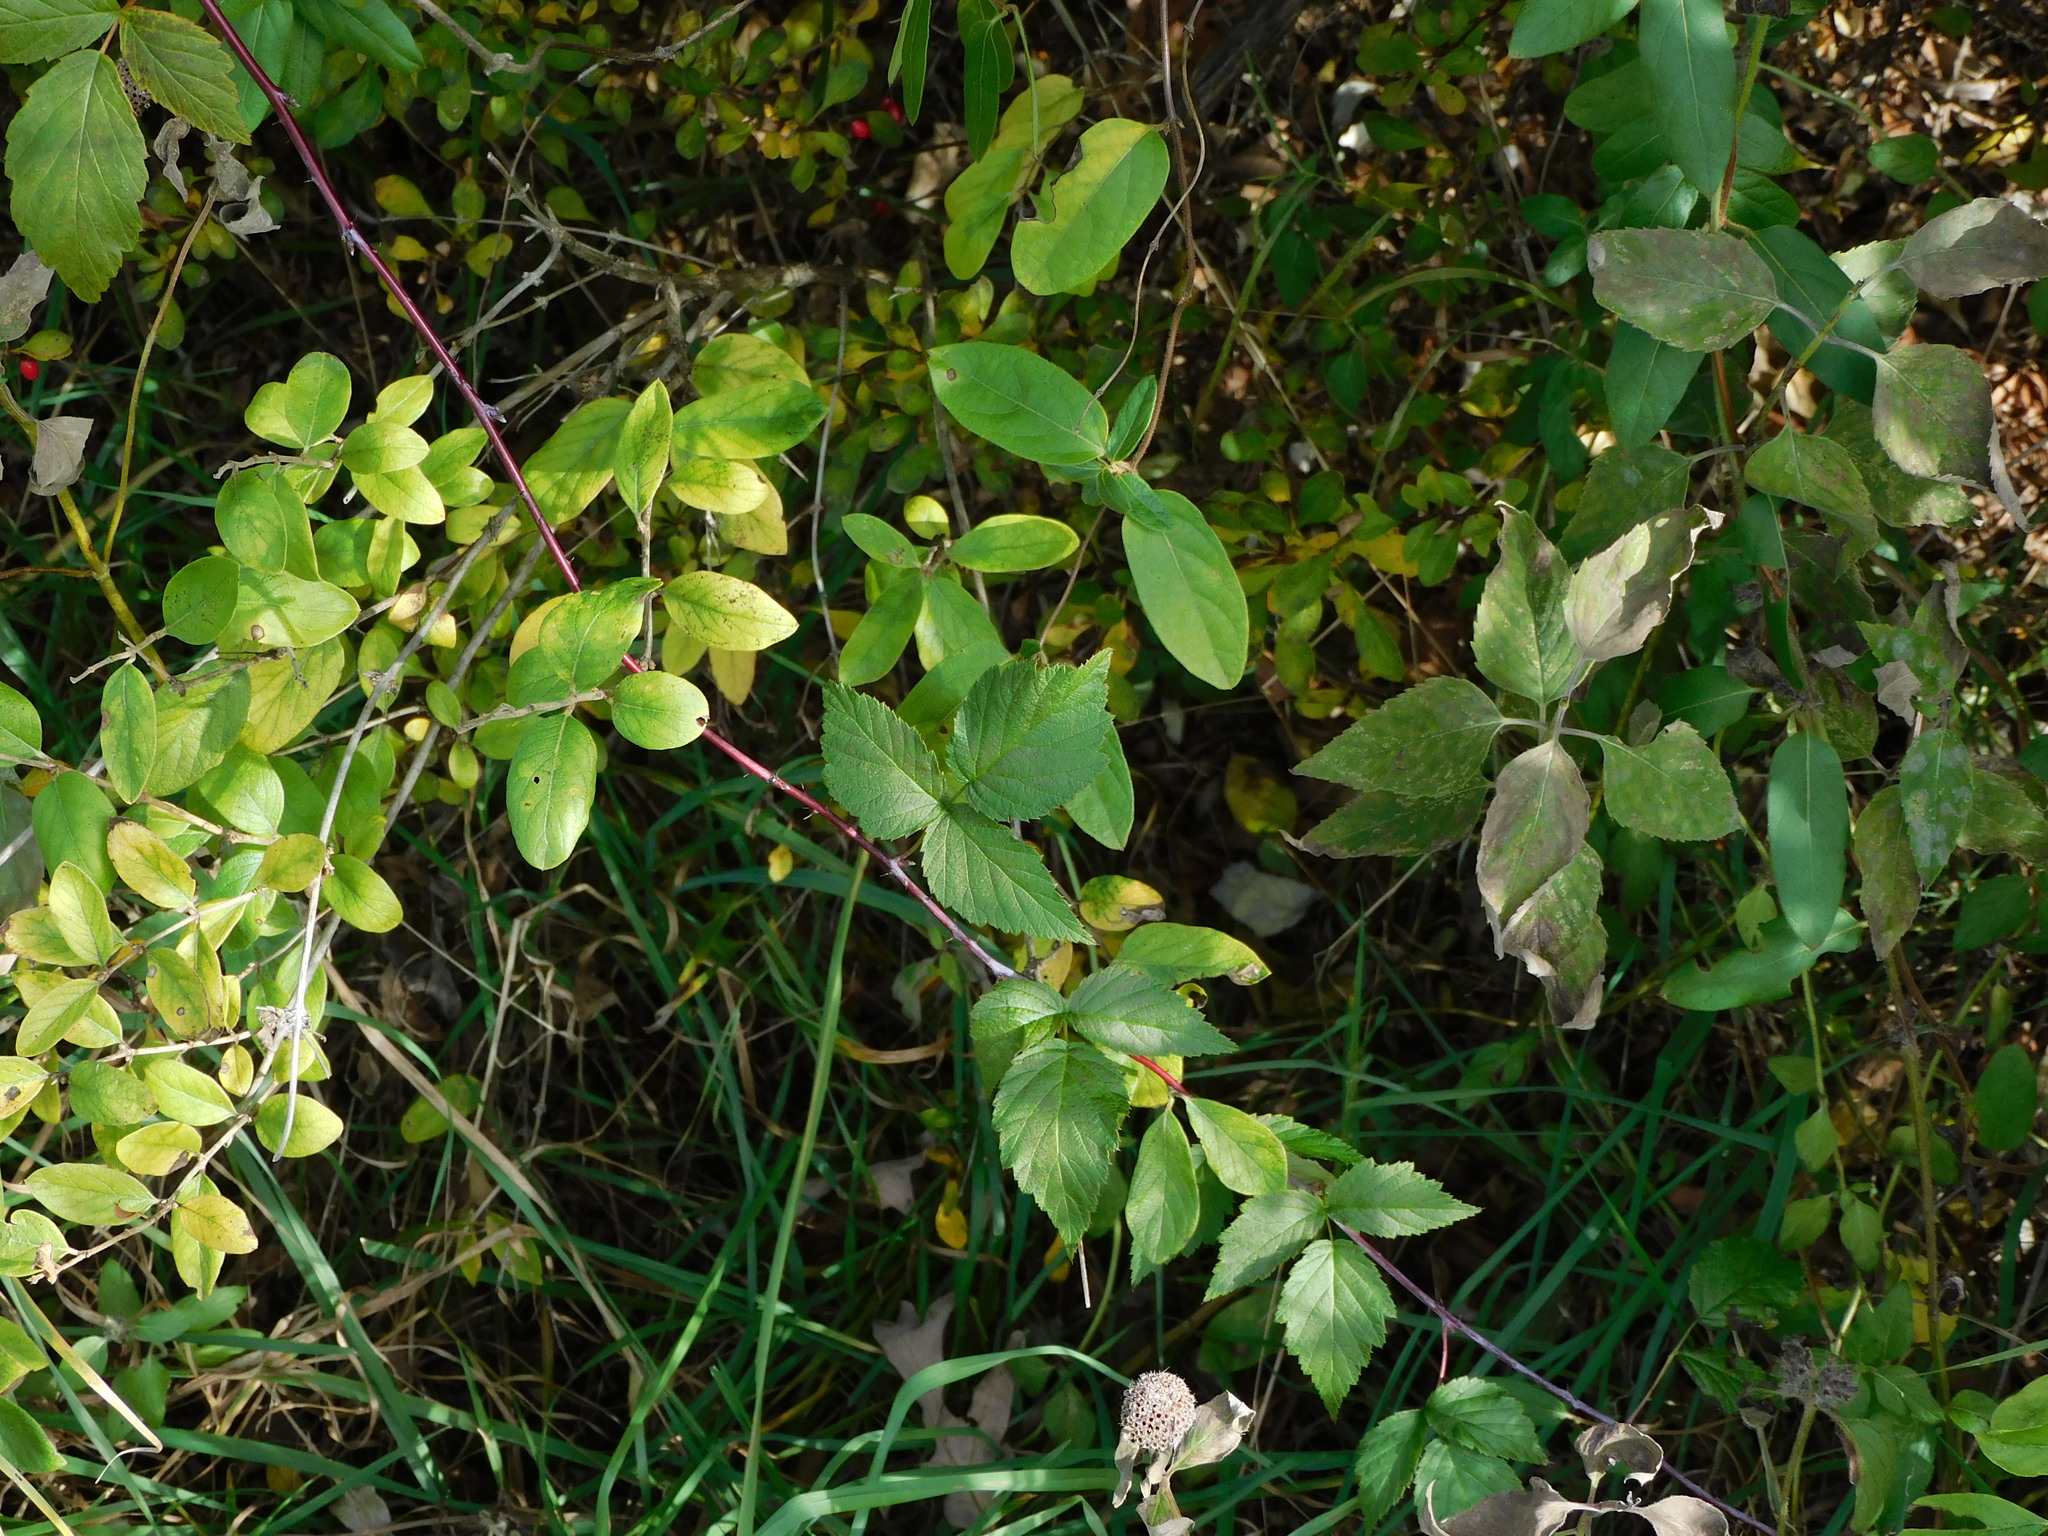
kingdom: Plantae
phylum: Tracheophyta
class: Magnoliopsida
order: Rosales
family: Rosaceae
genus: Rubus
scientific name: Rubus occidentalis
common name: Black raspberry
